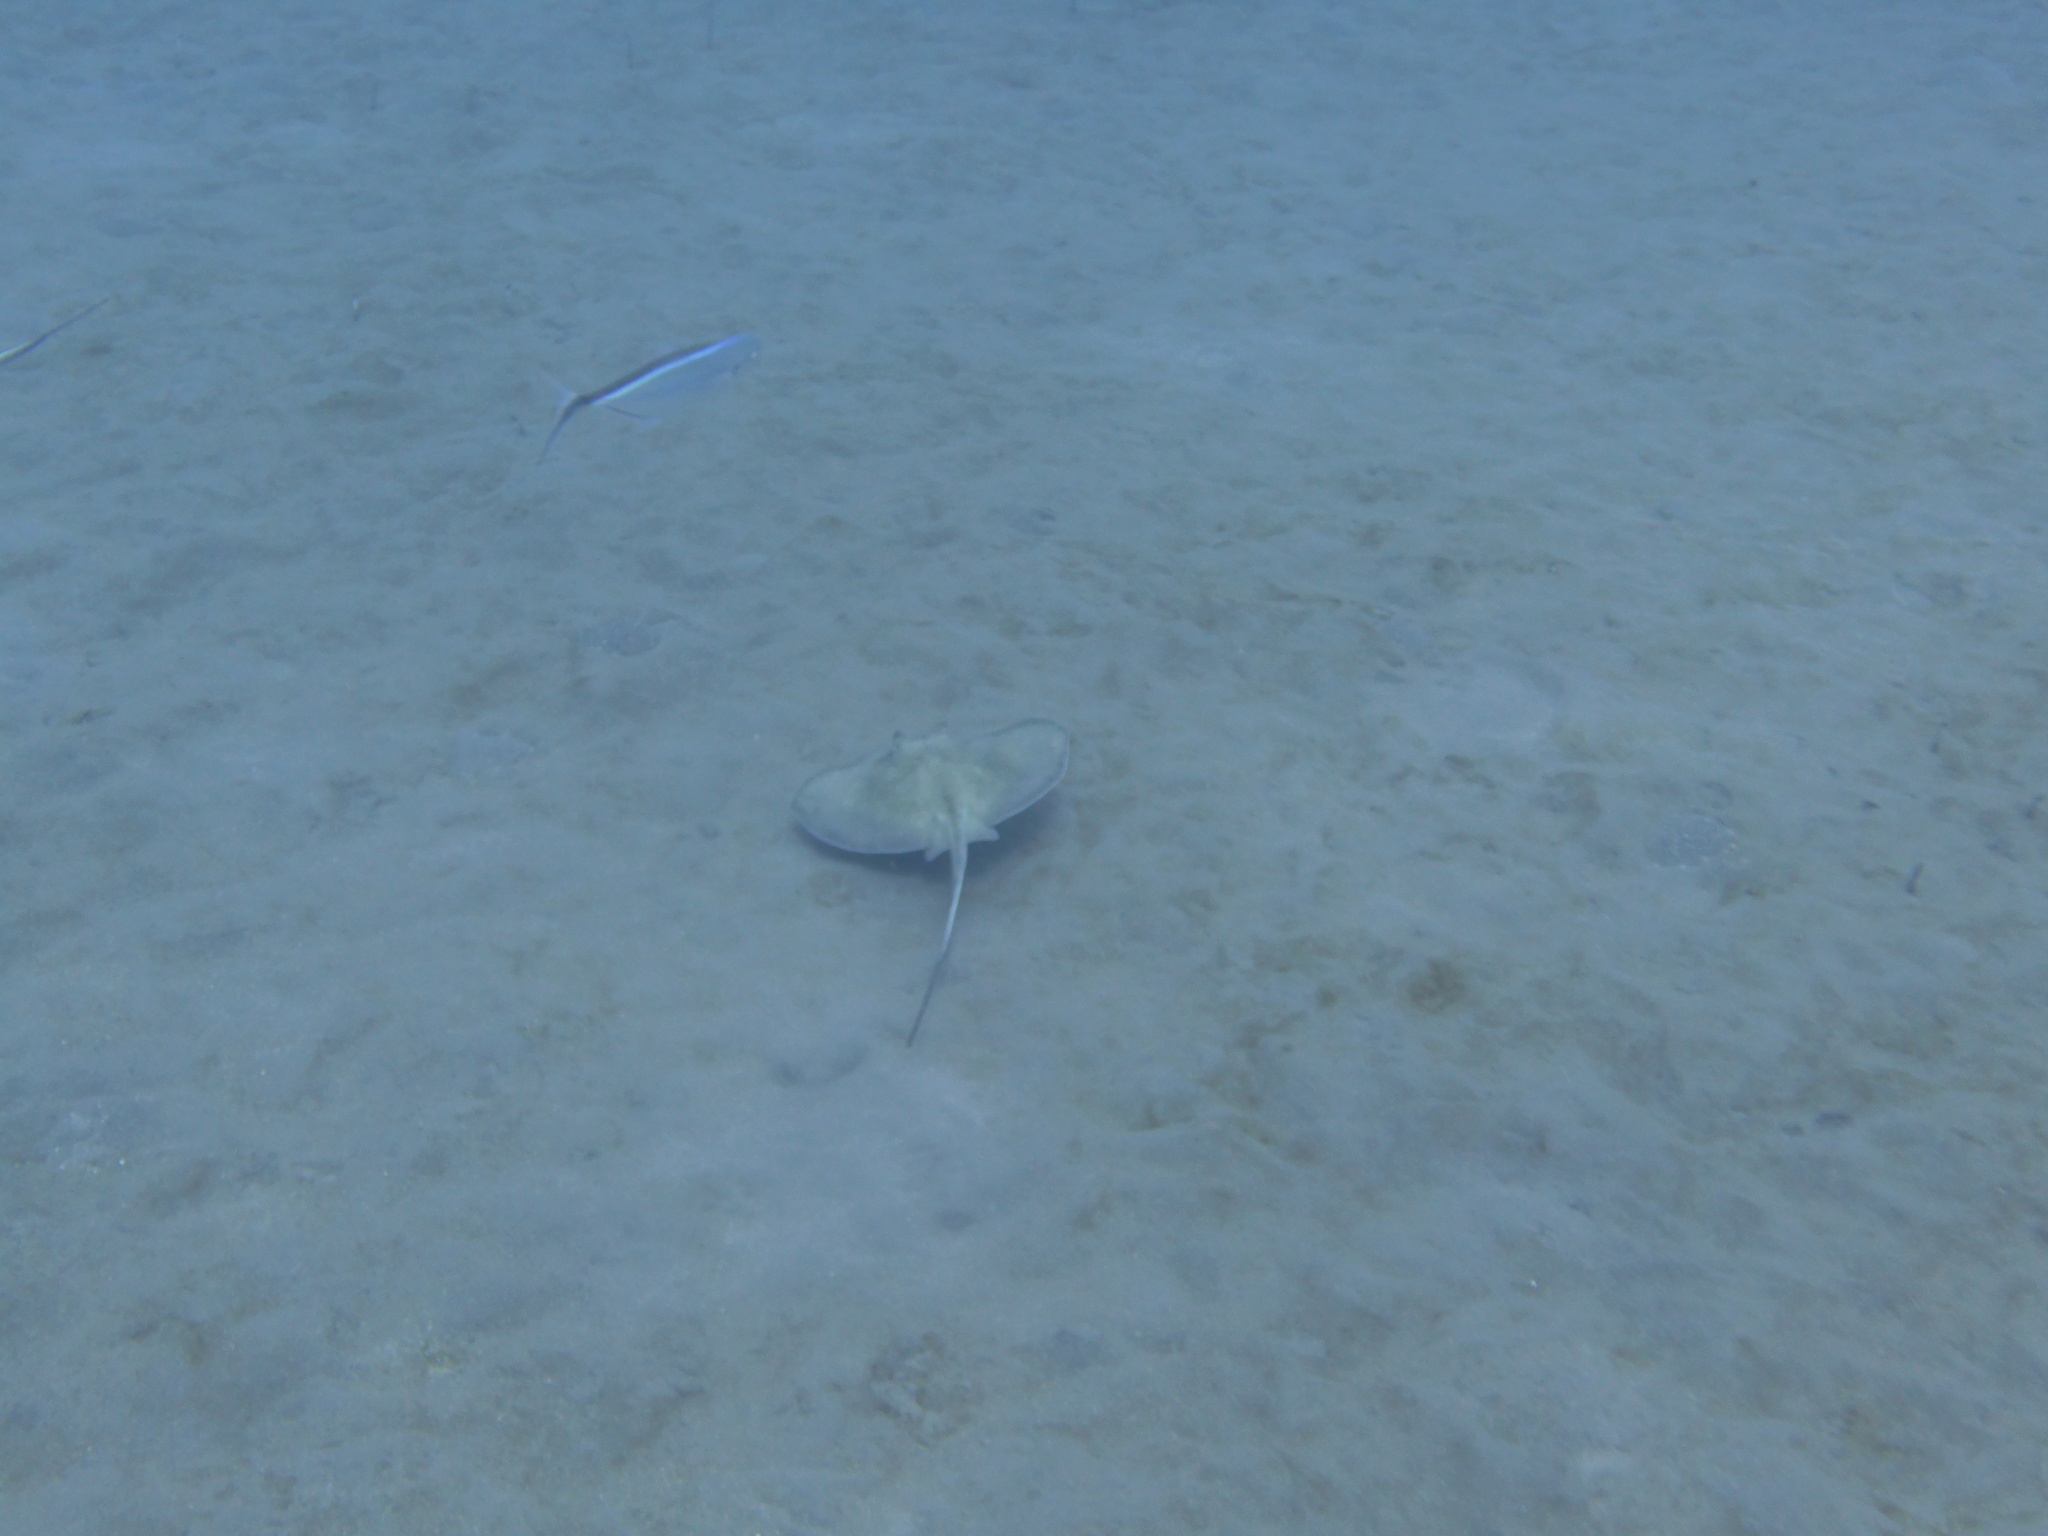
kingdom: Animalia
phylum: Chordata
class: Elasmobranchii
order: Myliobatiformes
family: Dasyatidae
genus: Hypanus
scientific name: Hypanus americanus
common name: Southern stingray
